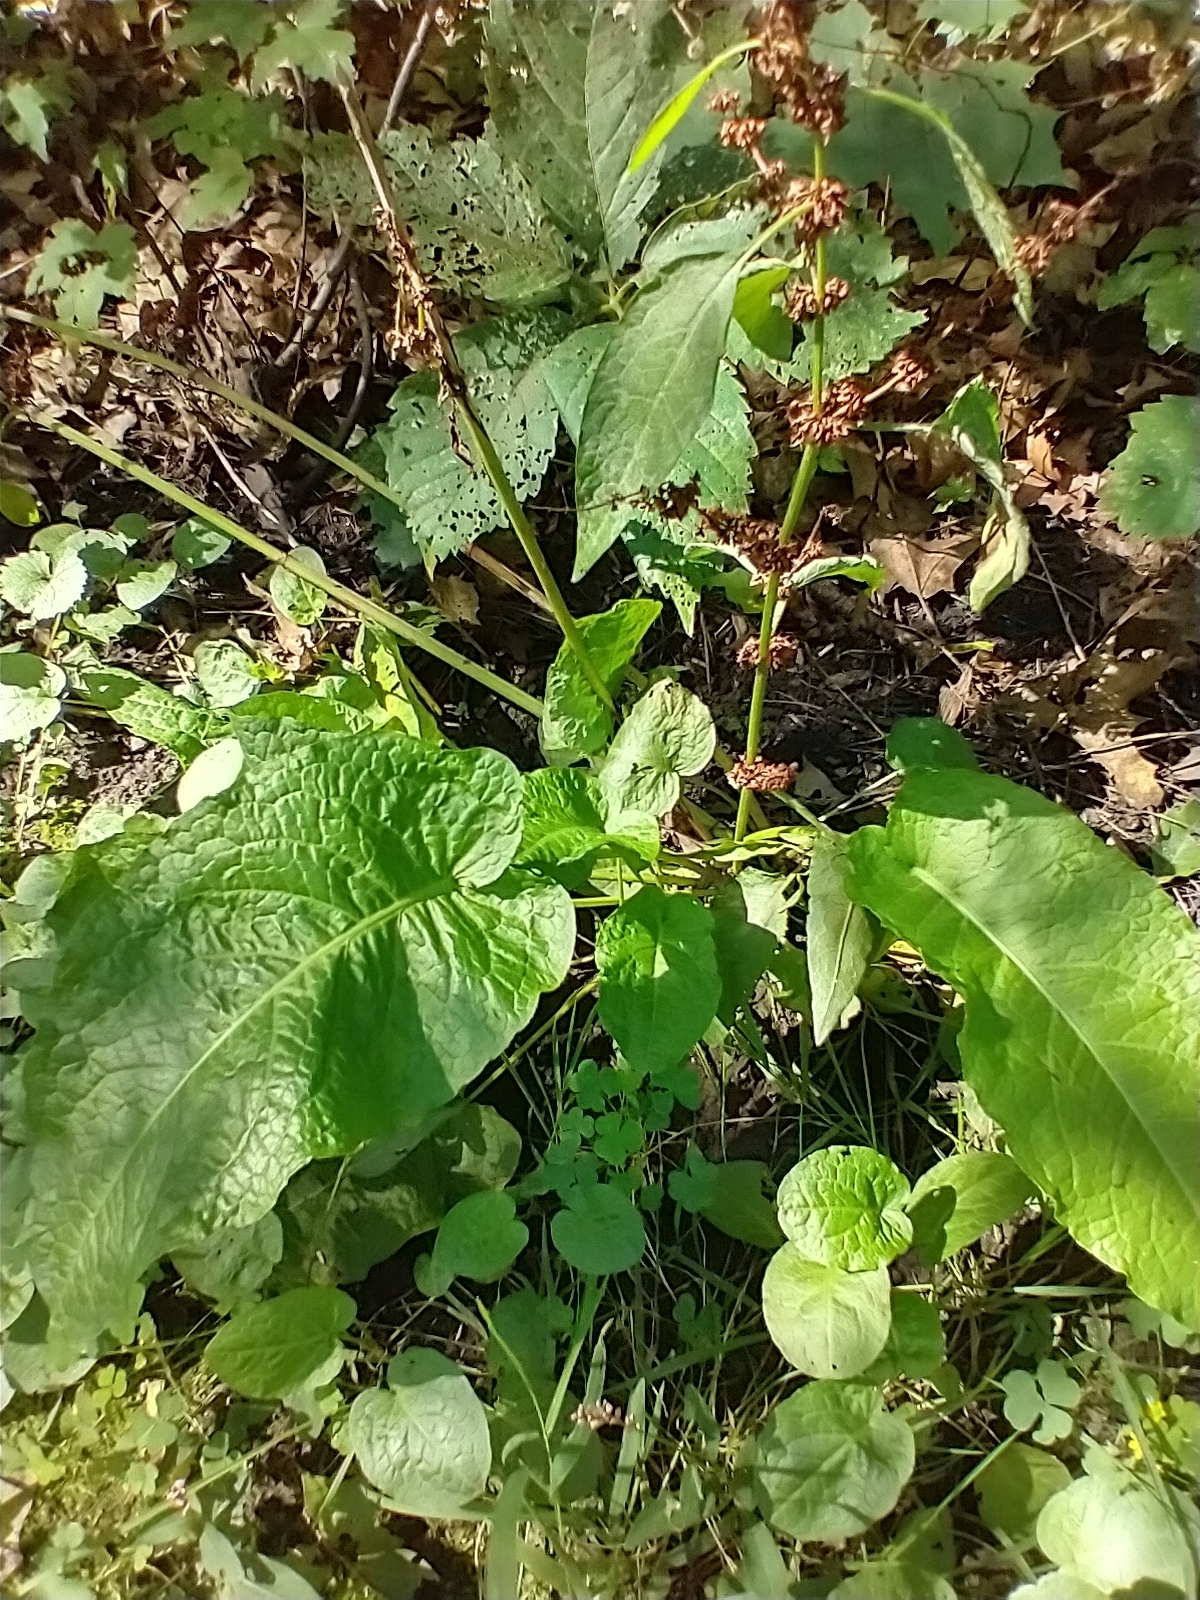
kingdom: Plantae
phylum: Tracheophyta
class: Magnoliopsida
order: Caryophyllales
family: Polygonaceae
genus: Rumex
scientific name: Rumex obtusifolius
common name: Bitter dock
